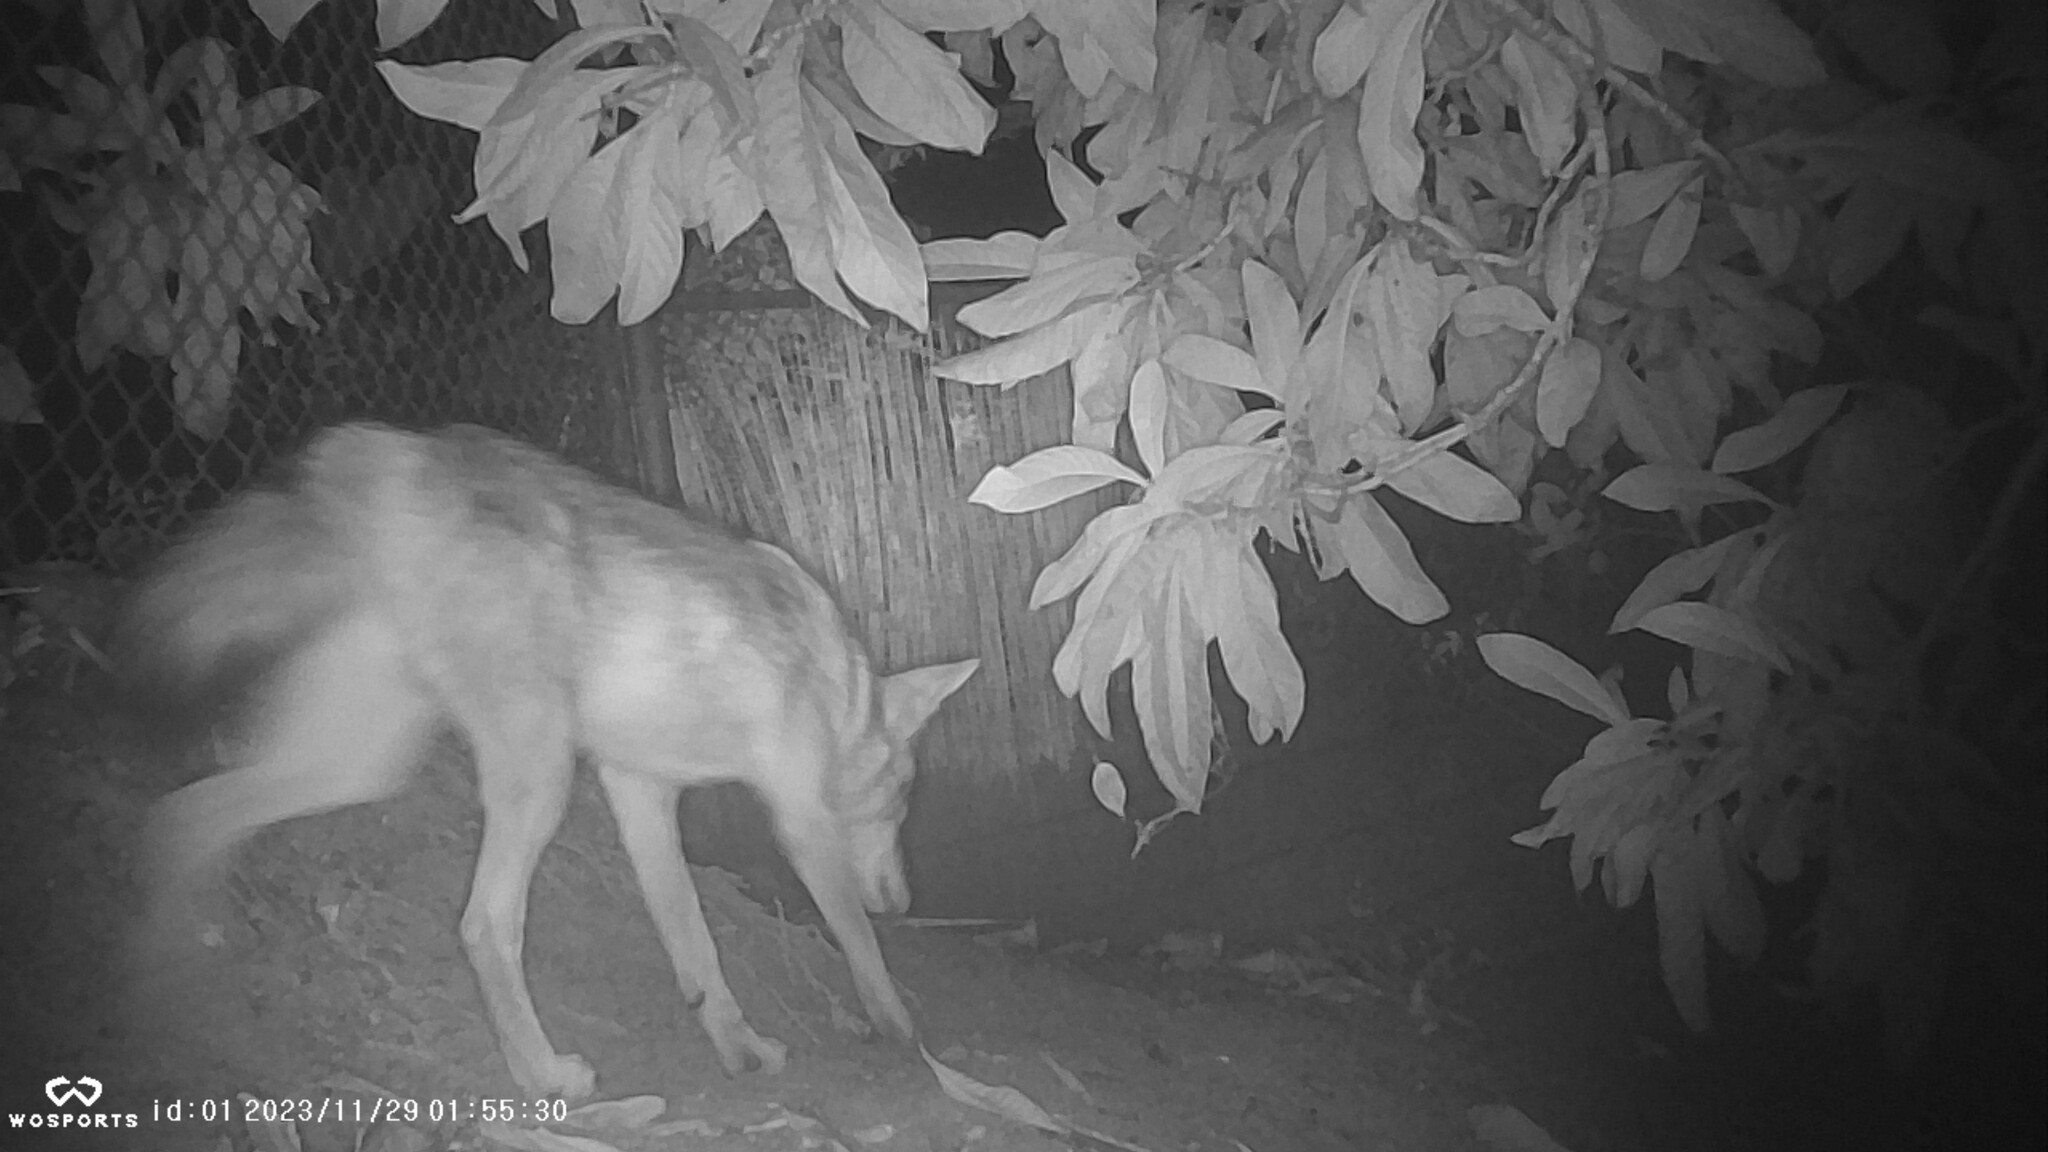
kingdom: Animalia
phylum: Chordata
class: Mammalia
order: Carnivora
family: Canidae
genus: Canis
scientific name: Canis latrans
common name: Coyote
